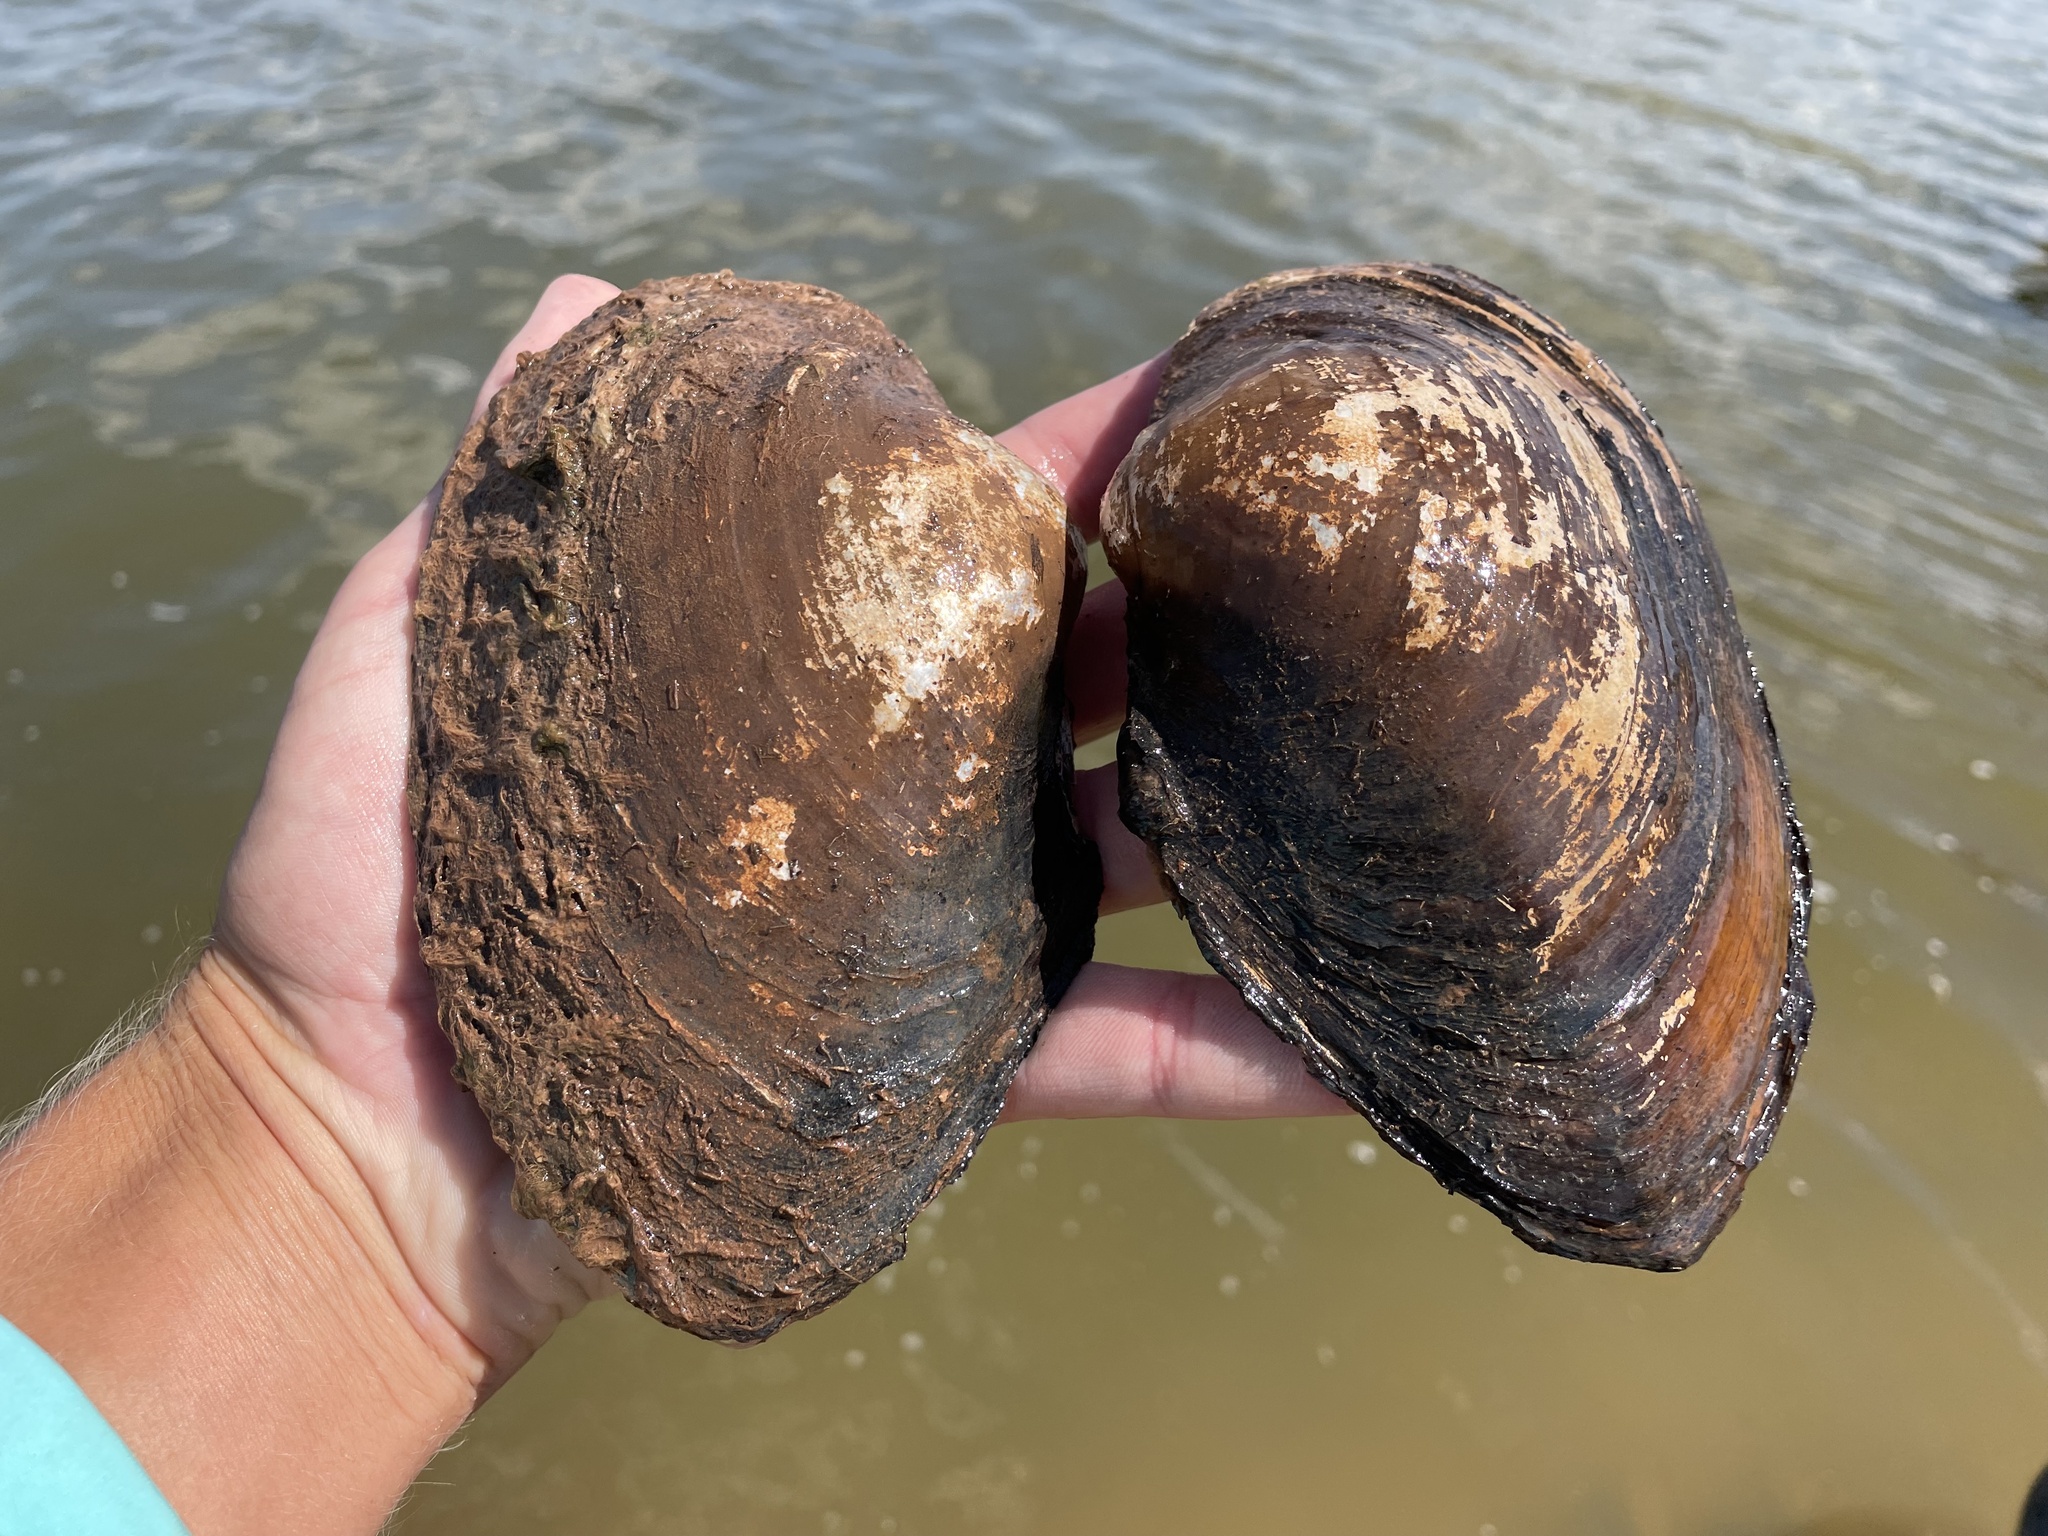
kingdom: Animalia
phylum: Mollusca
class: Bivalvia
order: Unionida
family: Unionidae
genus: Pyganodon
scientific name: Pyganodon grandis
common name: Giant floater
